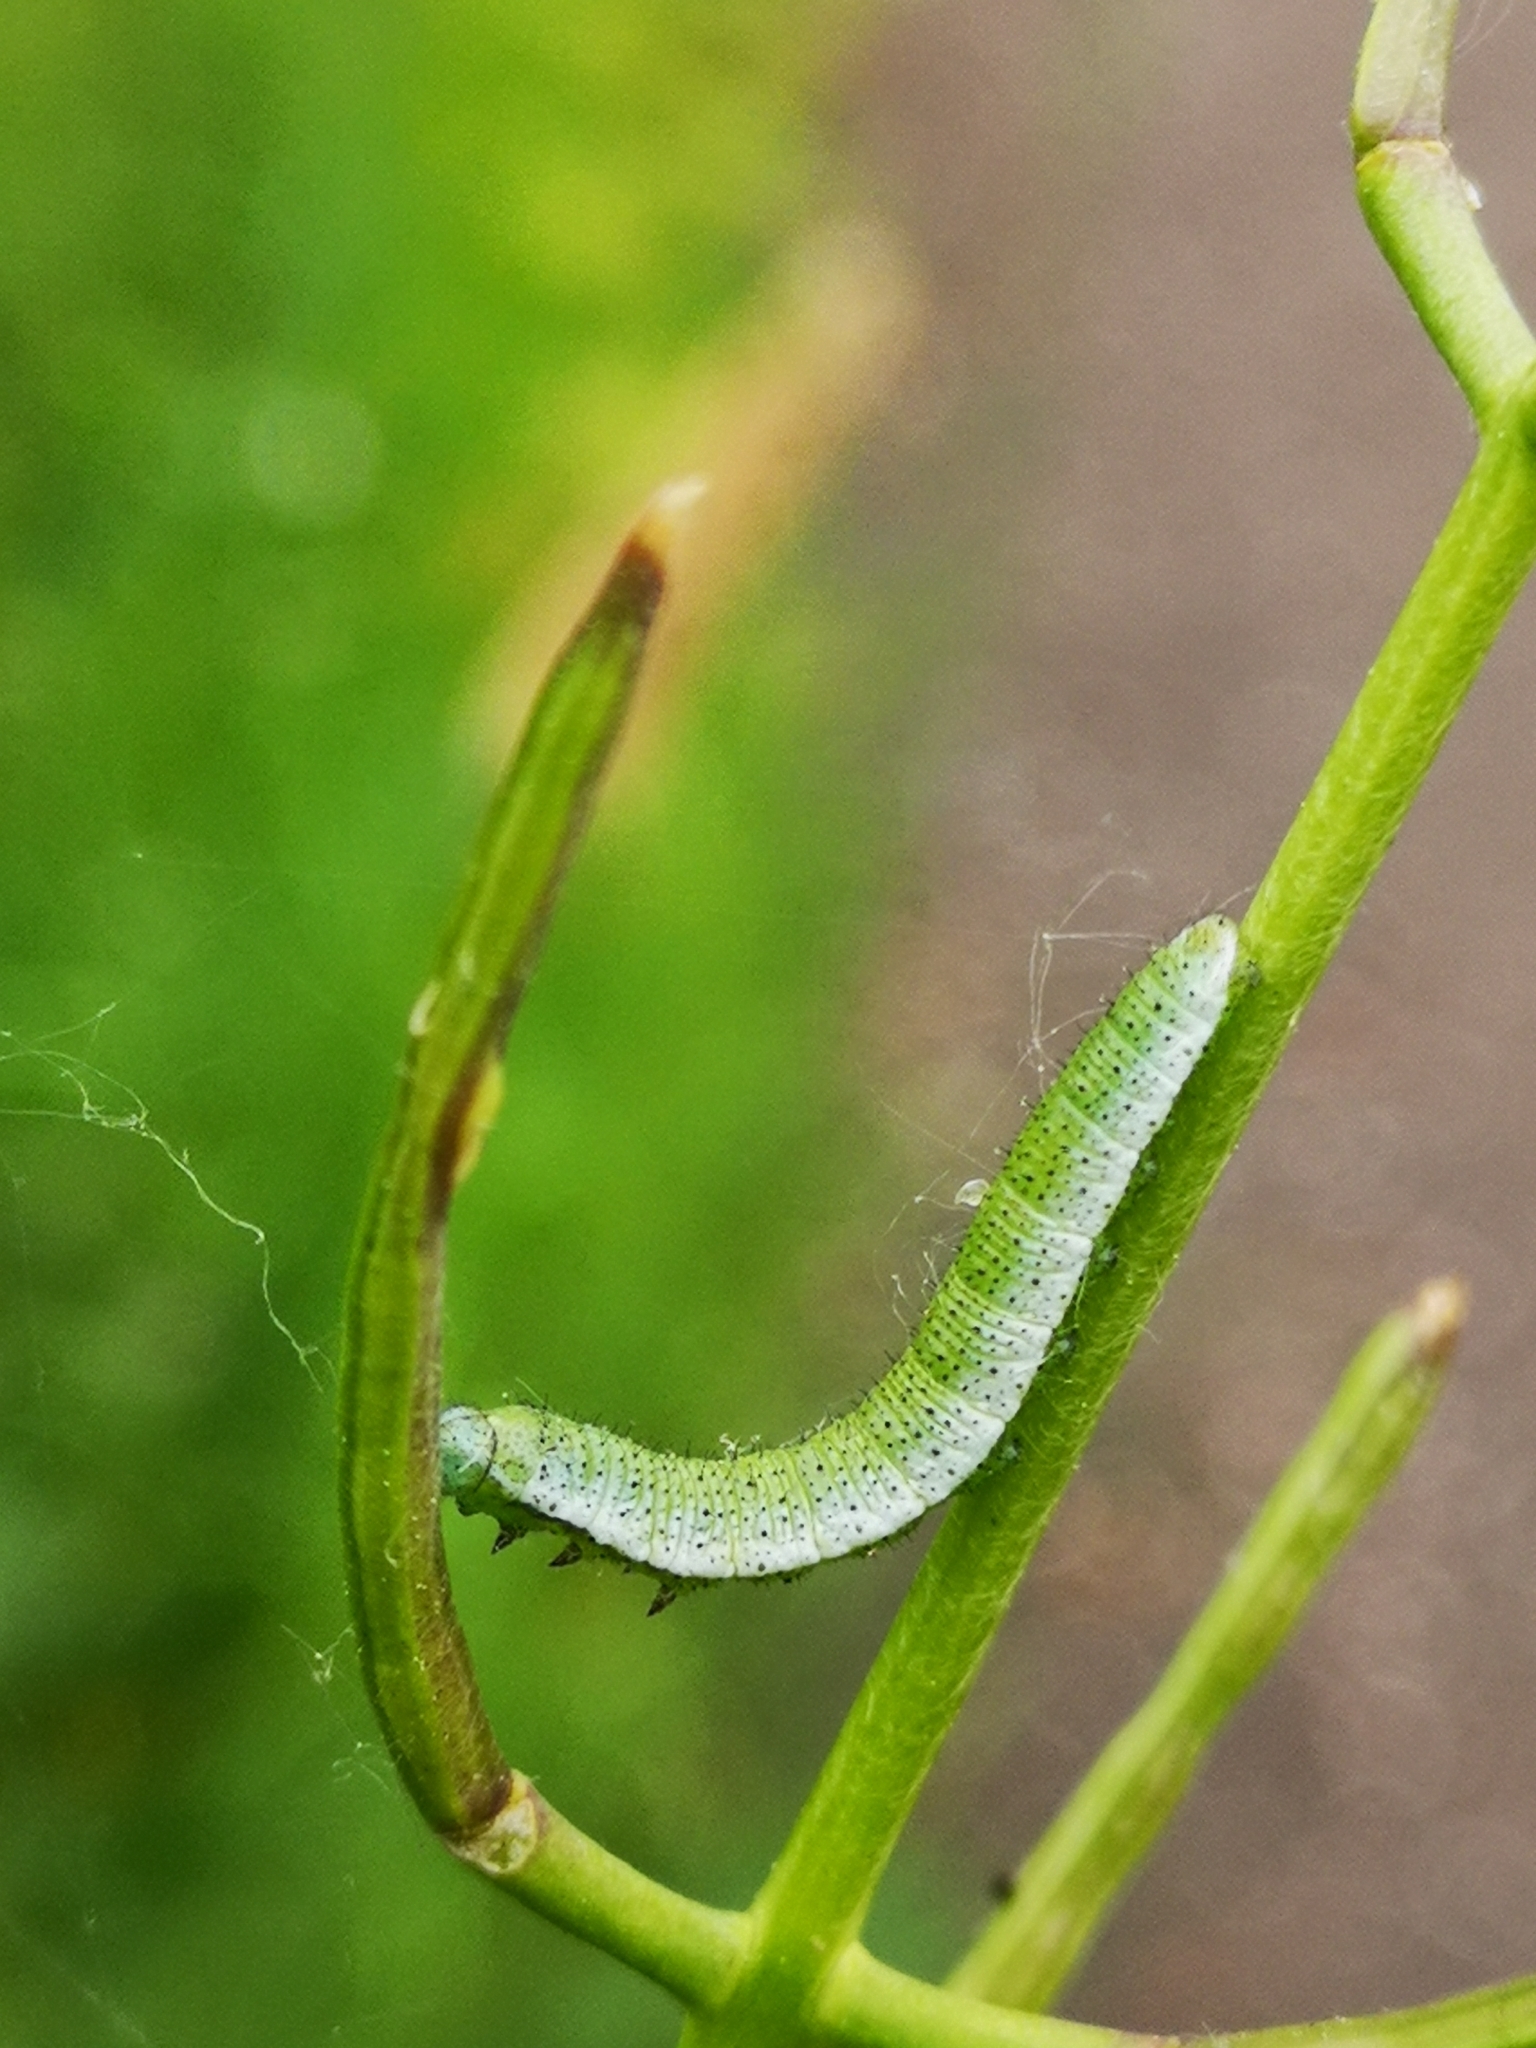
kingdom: Animalia
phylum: Arthropoda
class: Insecta
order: Lepidoptera
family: Pieridae
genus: Anthocharis
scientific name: Anthocharis cardamines
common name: Orange-tip
